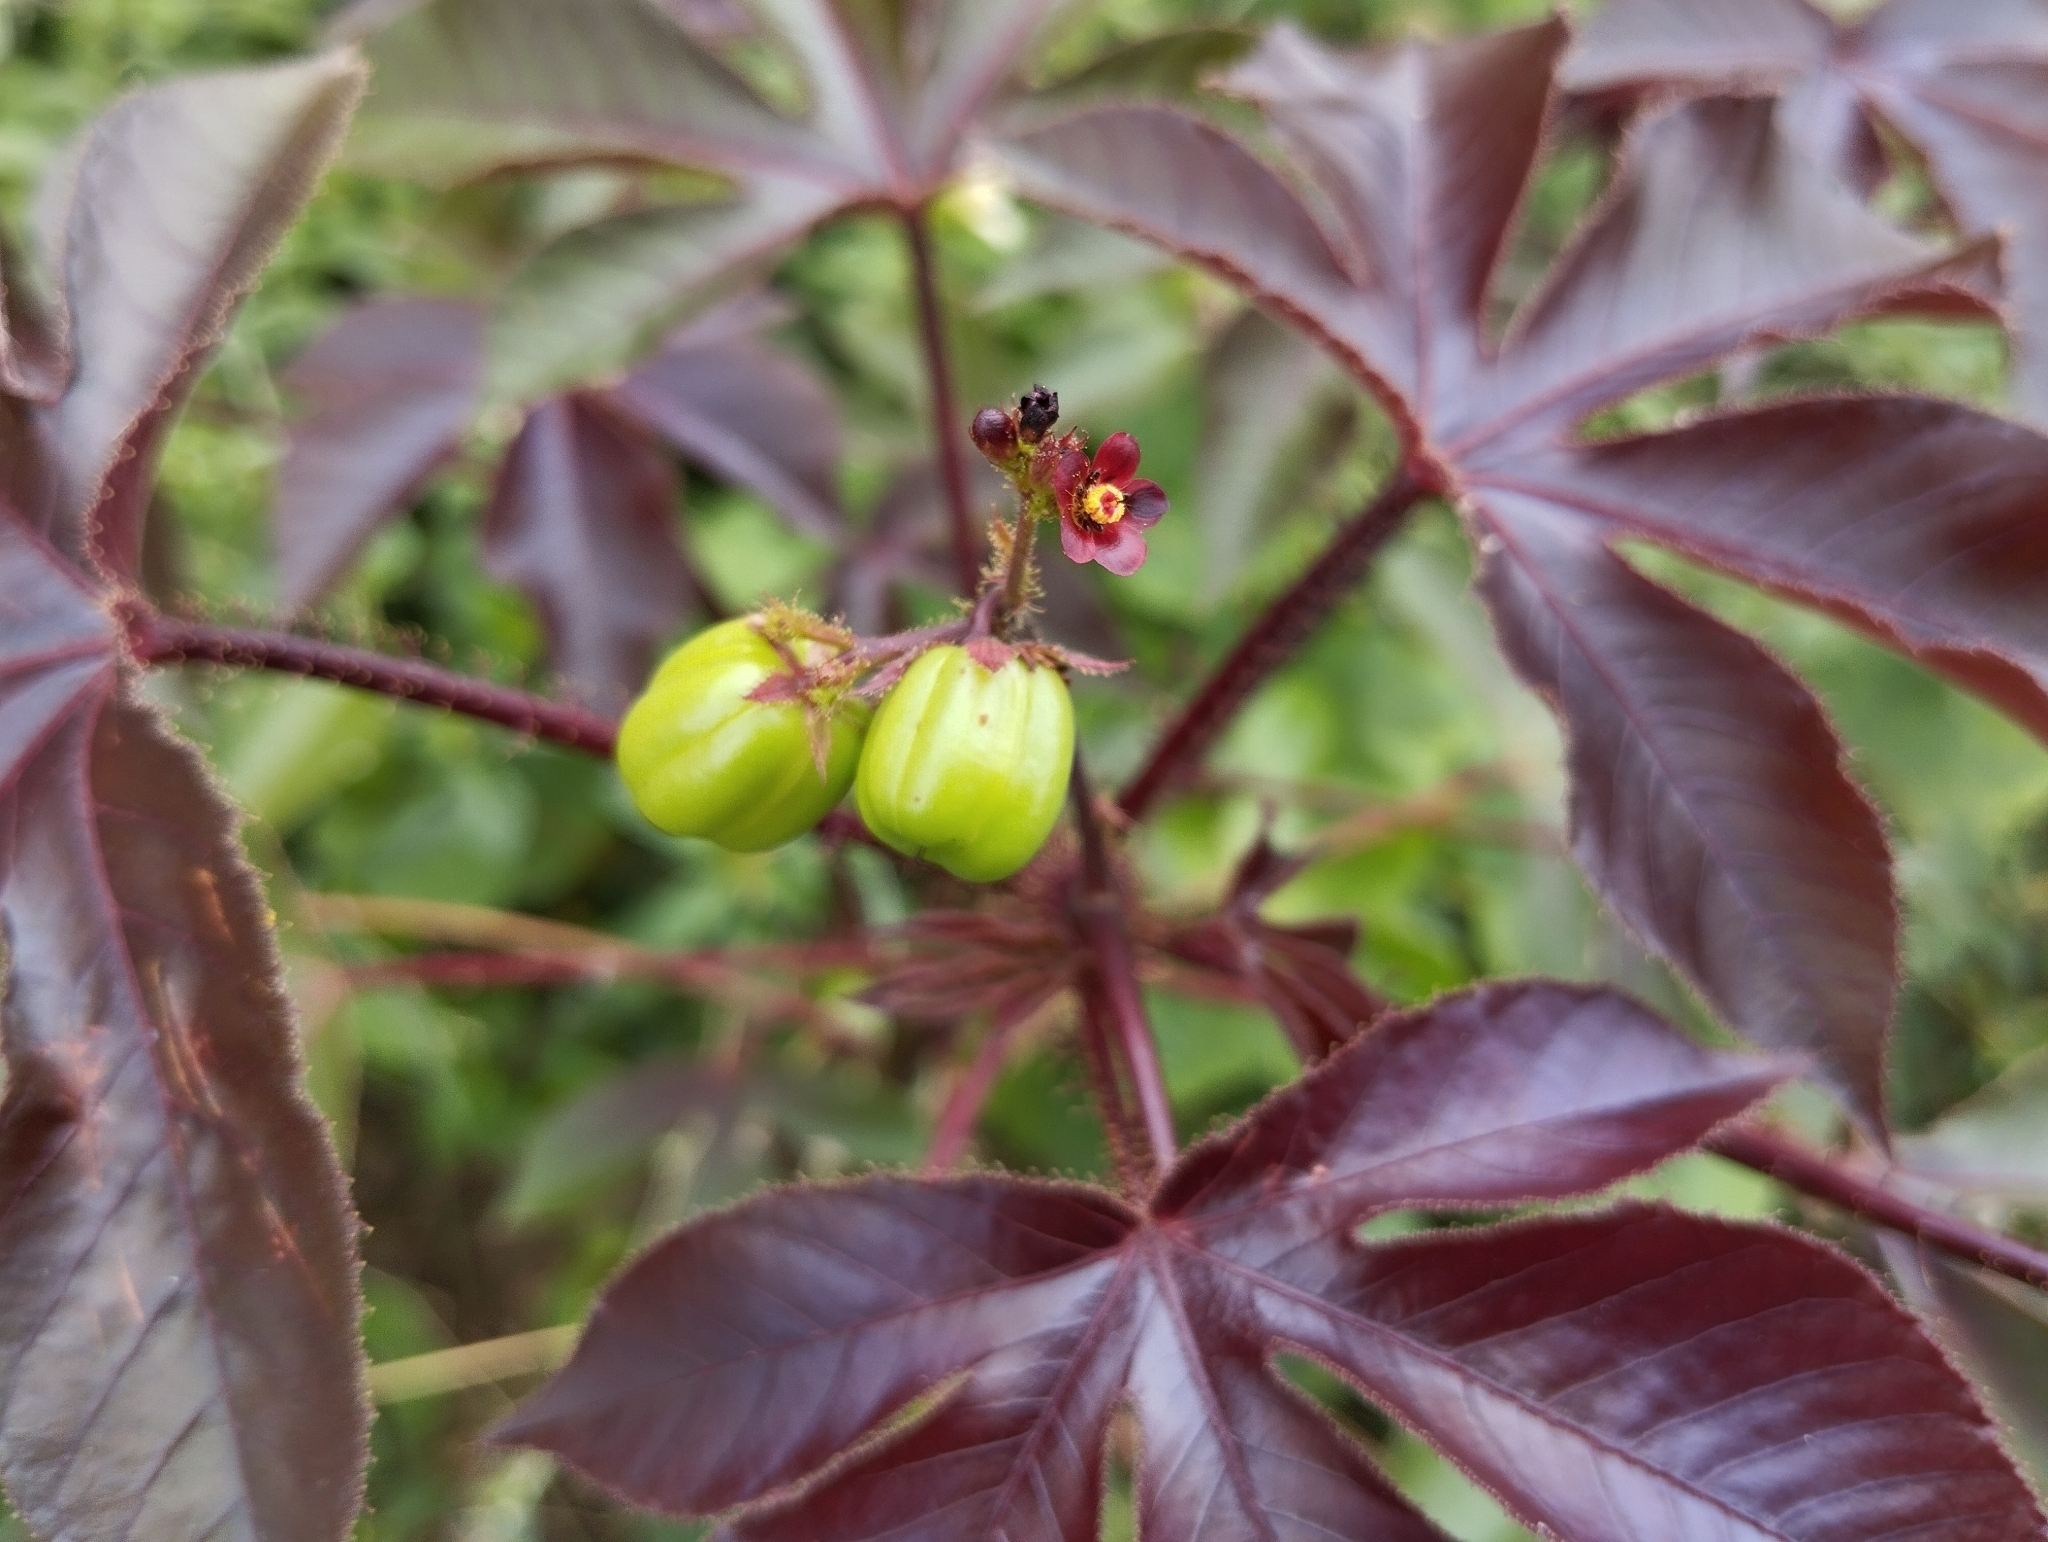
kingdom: Plantae
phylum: Tracheophyta
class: Magnoliopsida
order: Malpighiales
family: Euphorbiaceae
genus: Jatropha
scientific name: Jatropha gossypiifolia
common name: Bellyache bush
